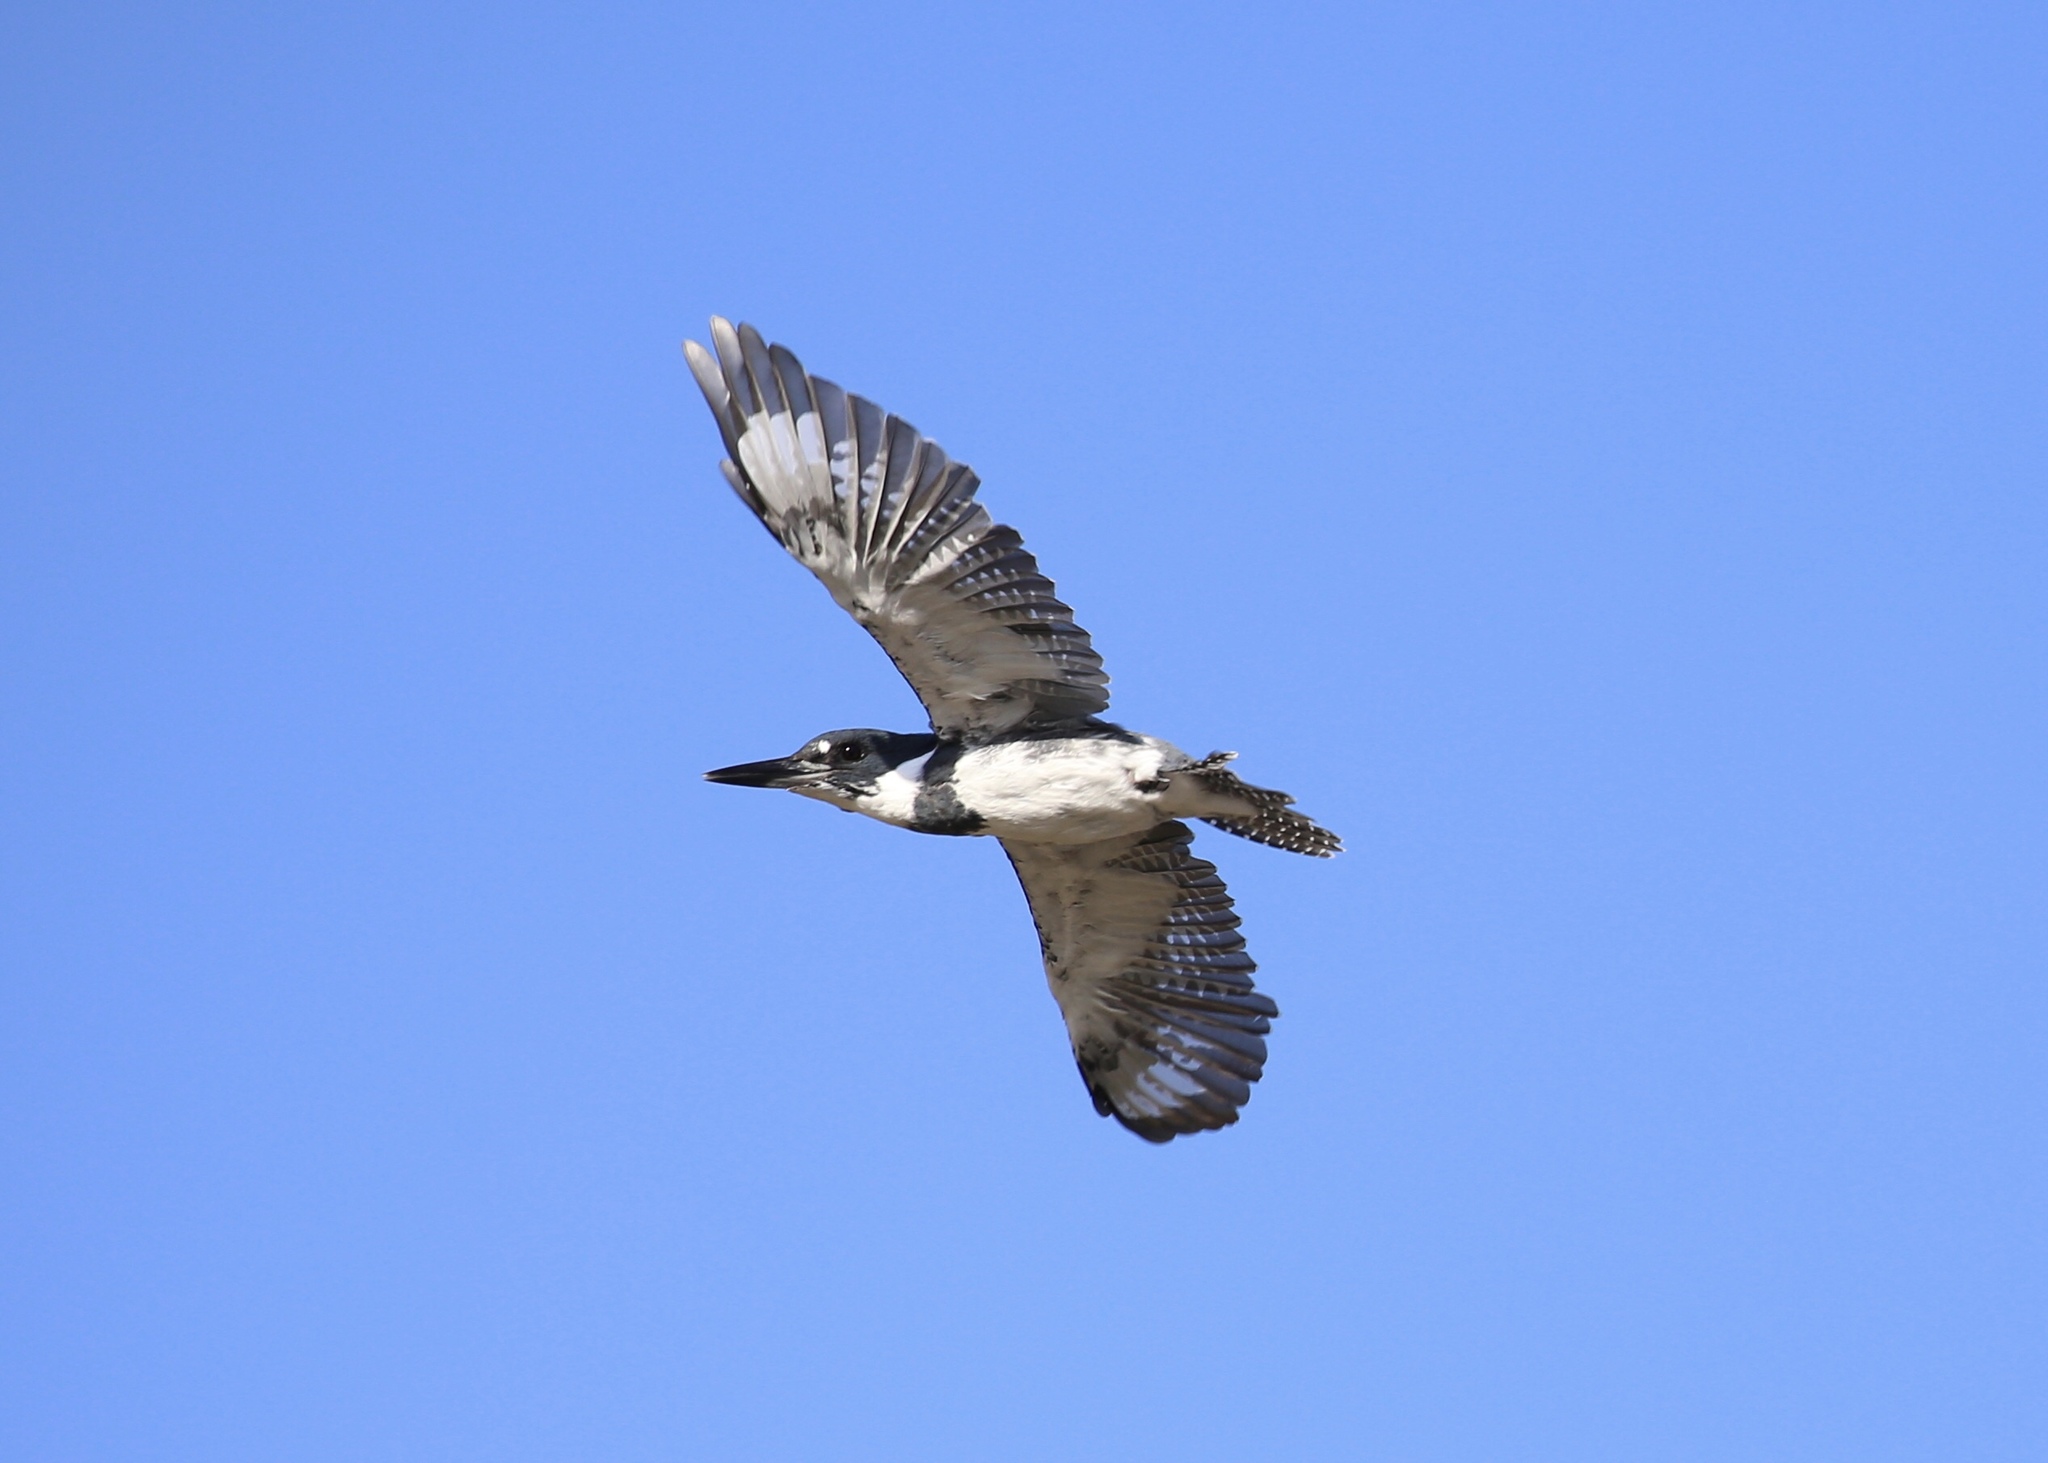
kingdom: Animalia
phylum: Chordata
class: Aves
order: Coraciiformes
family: Alcedinidae
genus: Megaceryle
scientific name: Megaceryle alcyon
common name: Belted kingfisher
